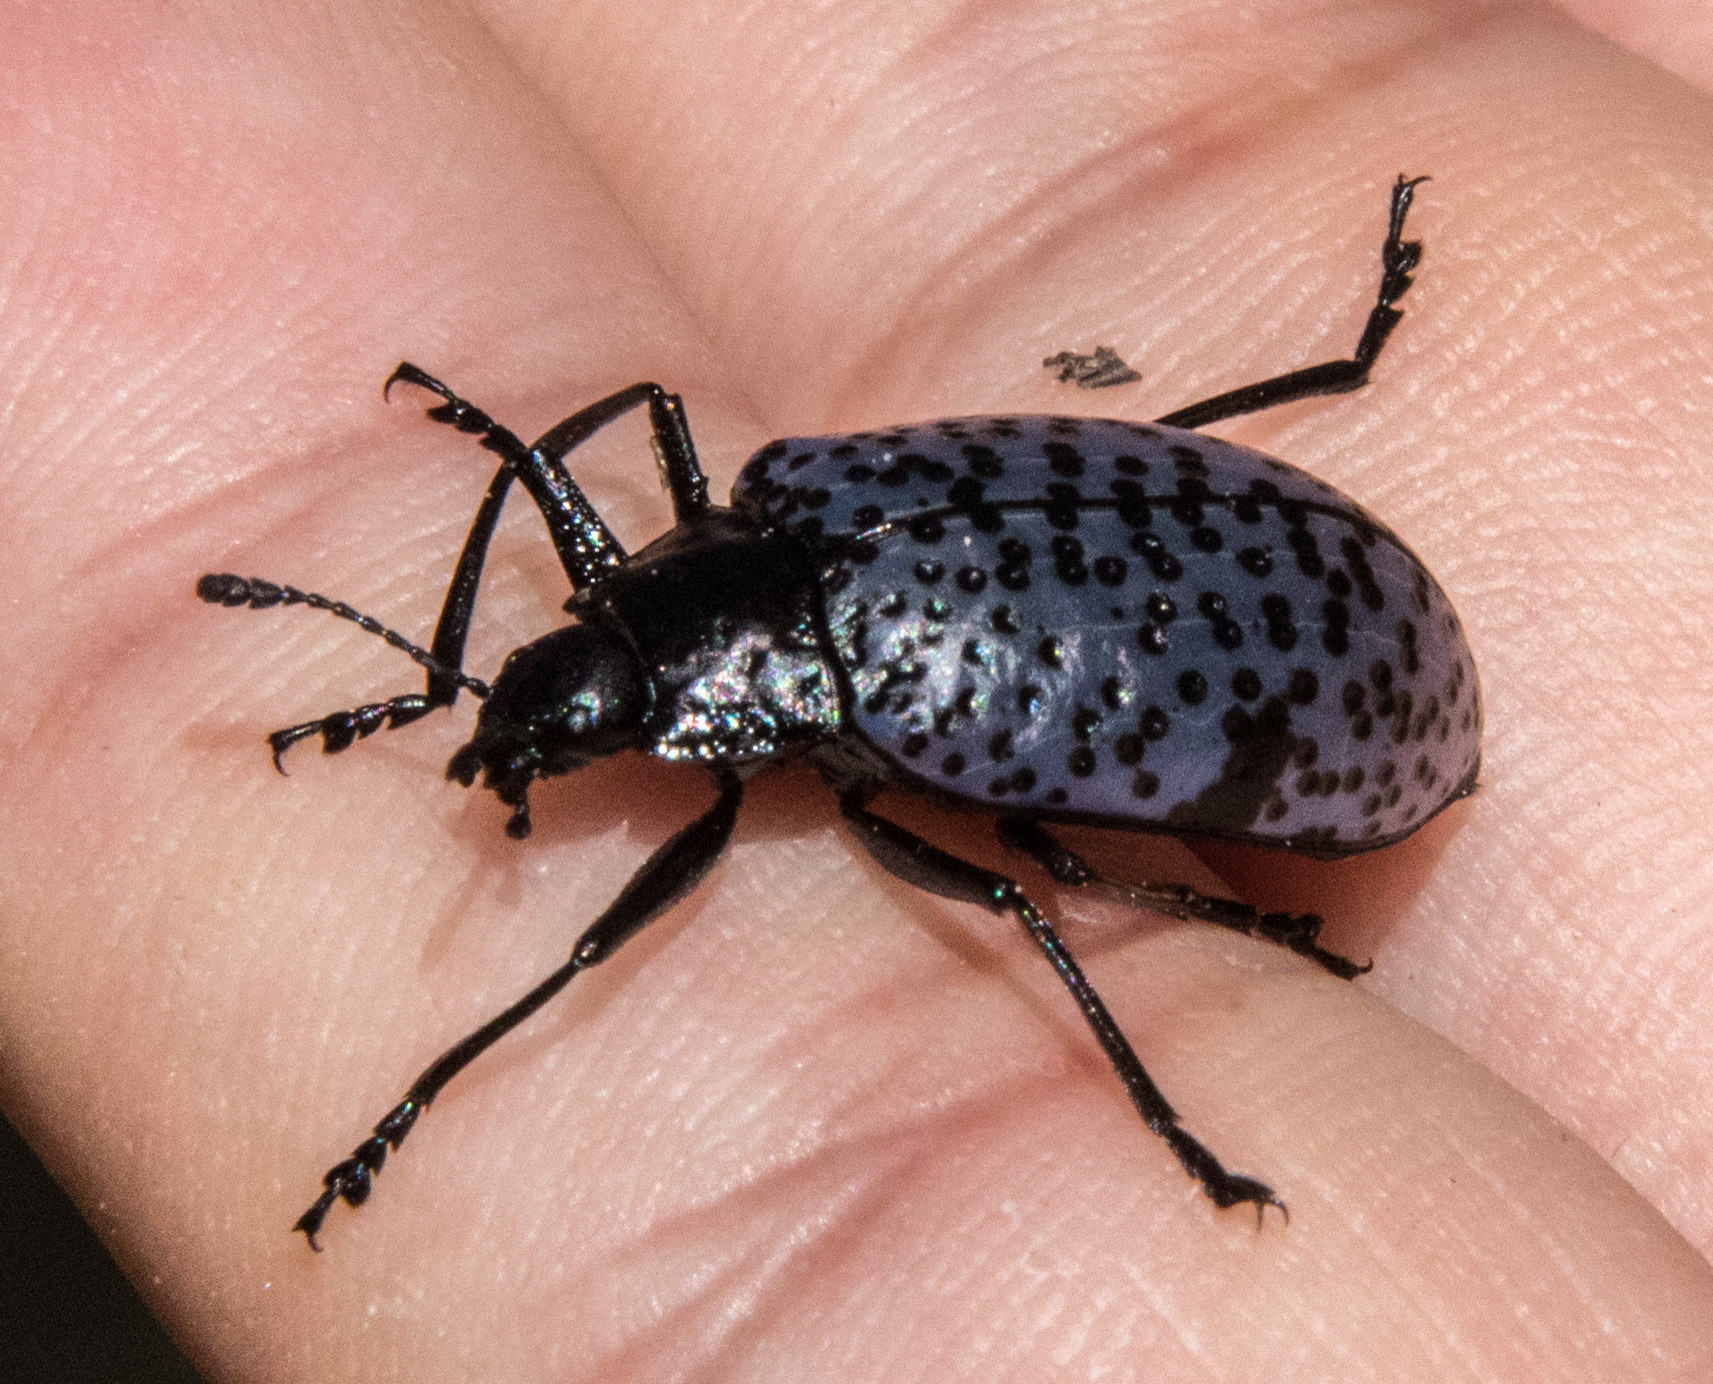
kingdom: Animalia
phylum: Arthropoda
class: Insecta
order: Coleoptera
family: Erotylidae
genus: Gibbifer
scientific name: Gibbifer californicus
